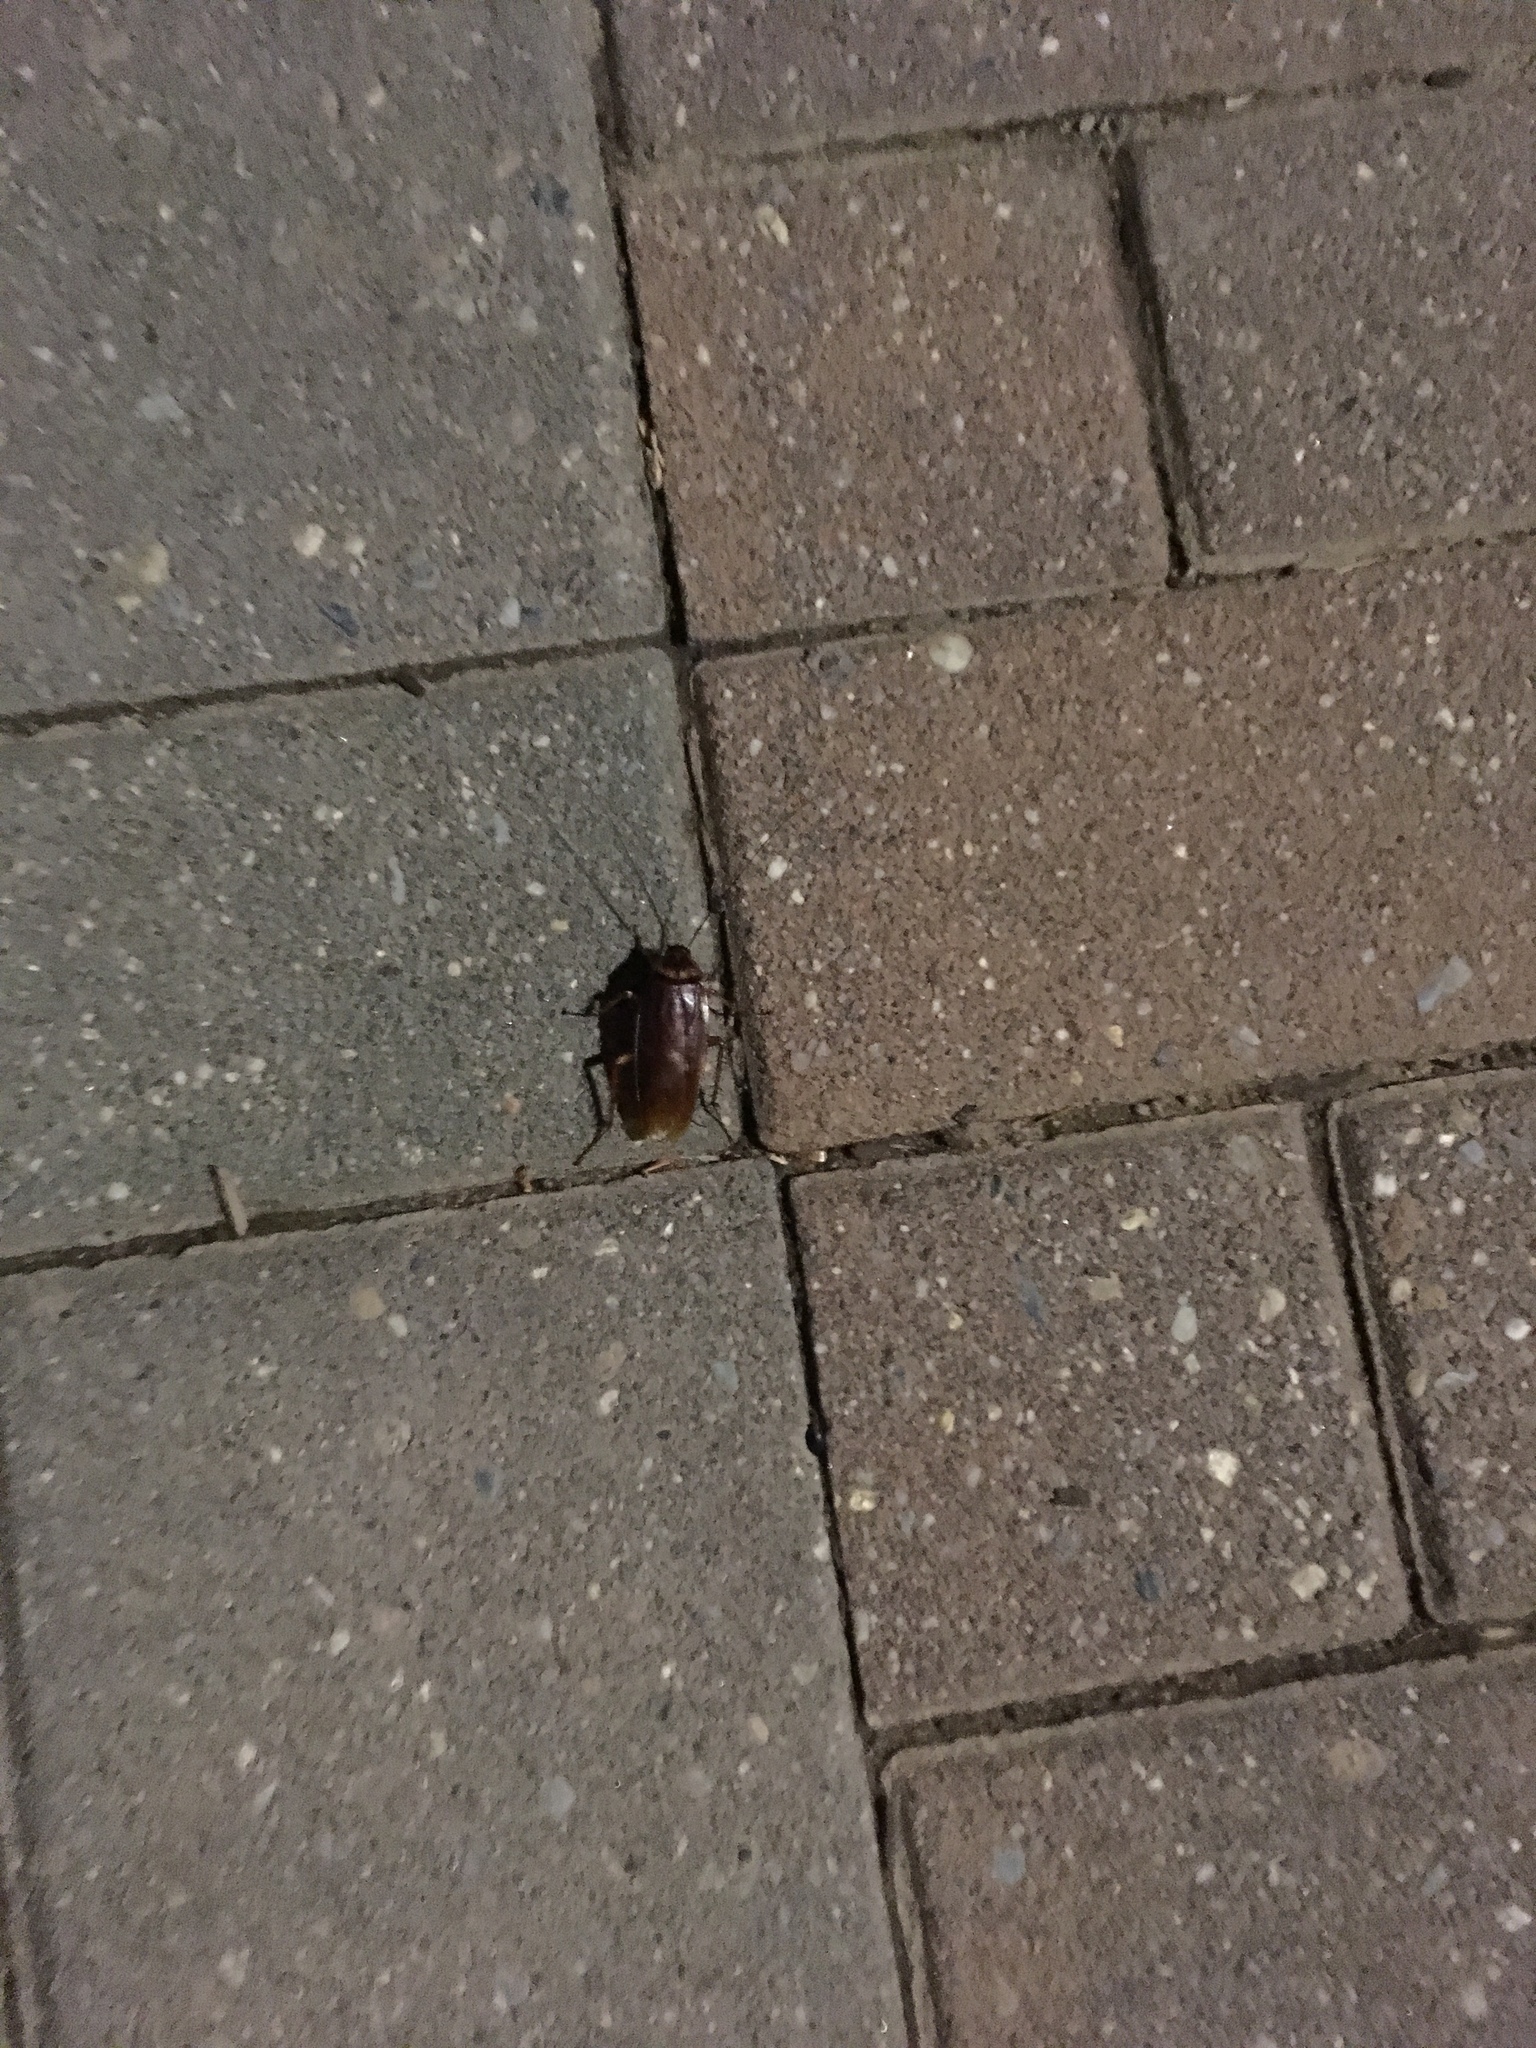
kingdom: Animalia
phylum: Arthropoda
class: Insecta
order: Blattodea
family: Blattidae
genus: Periplaneta
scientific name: Periplaneta americana
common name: American cockroach
